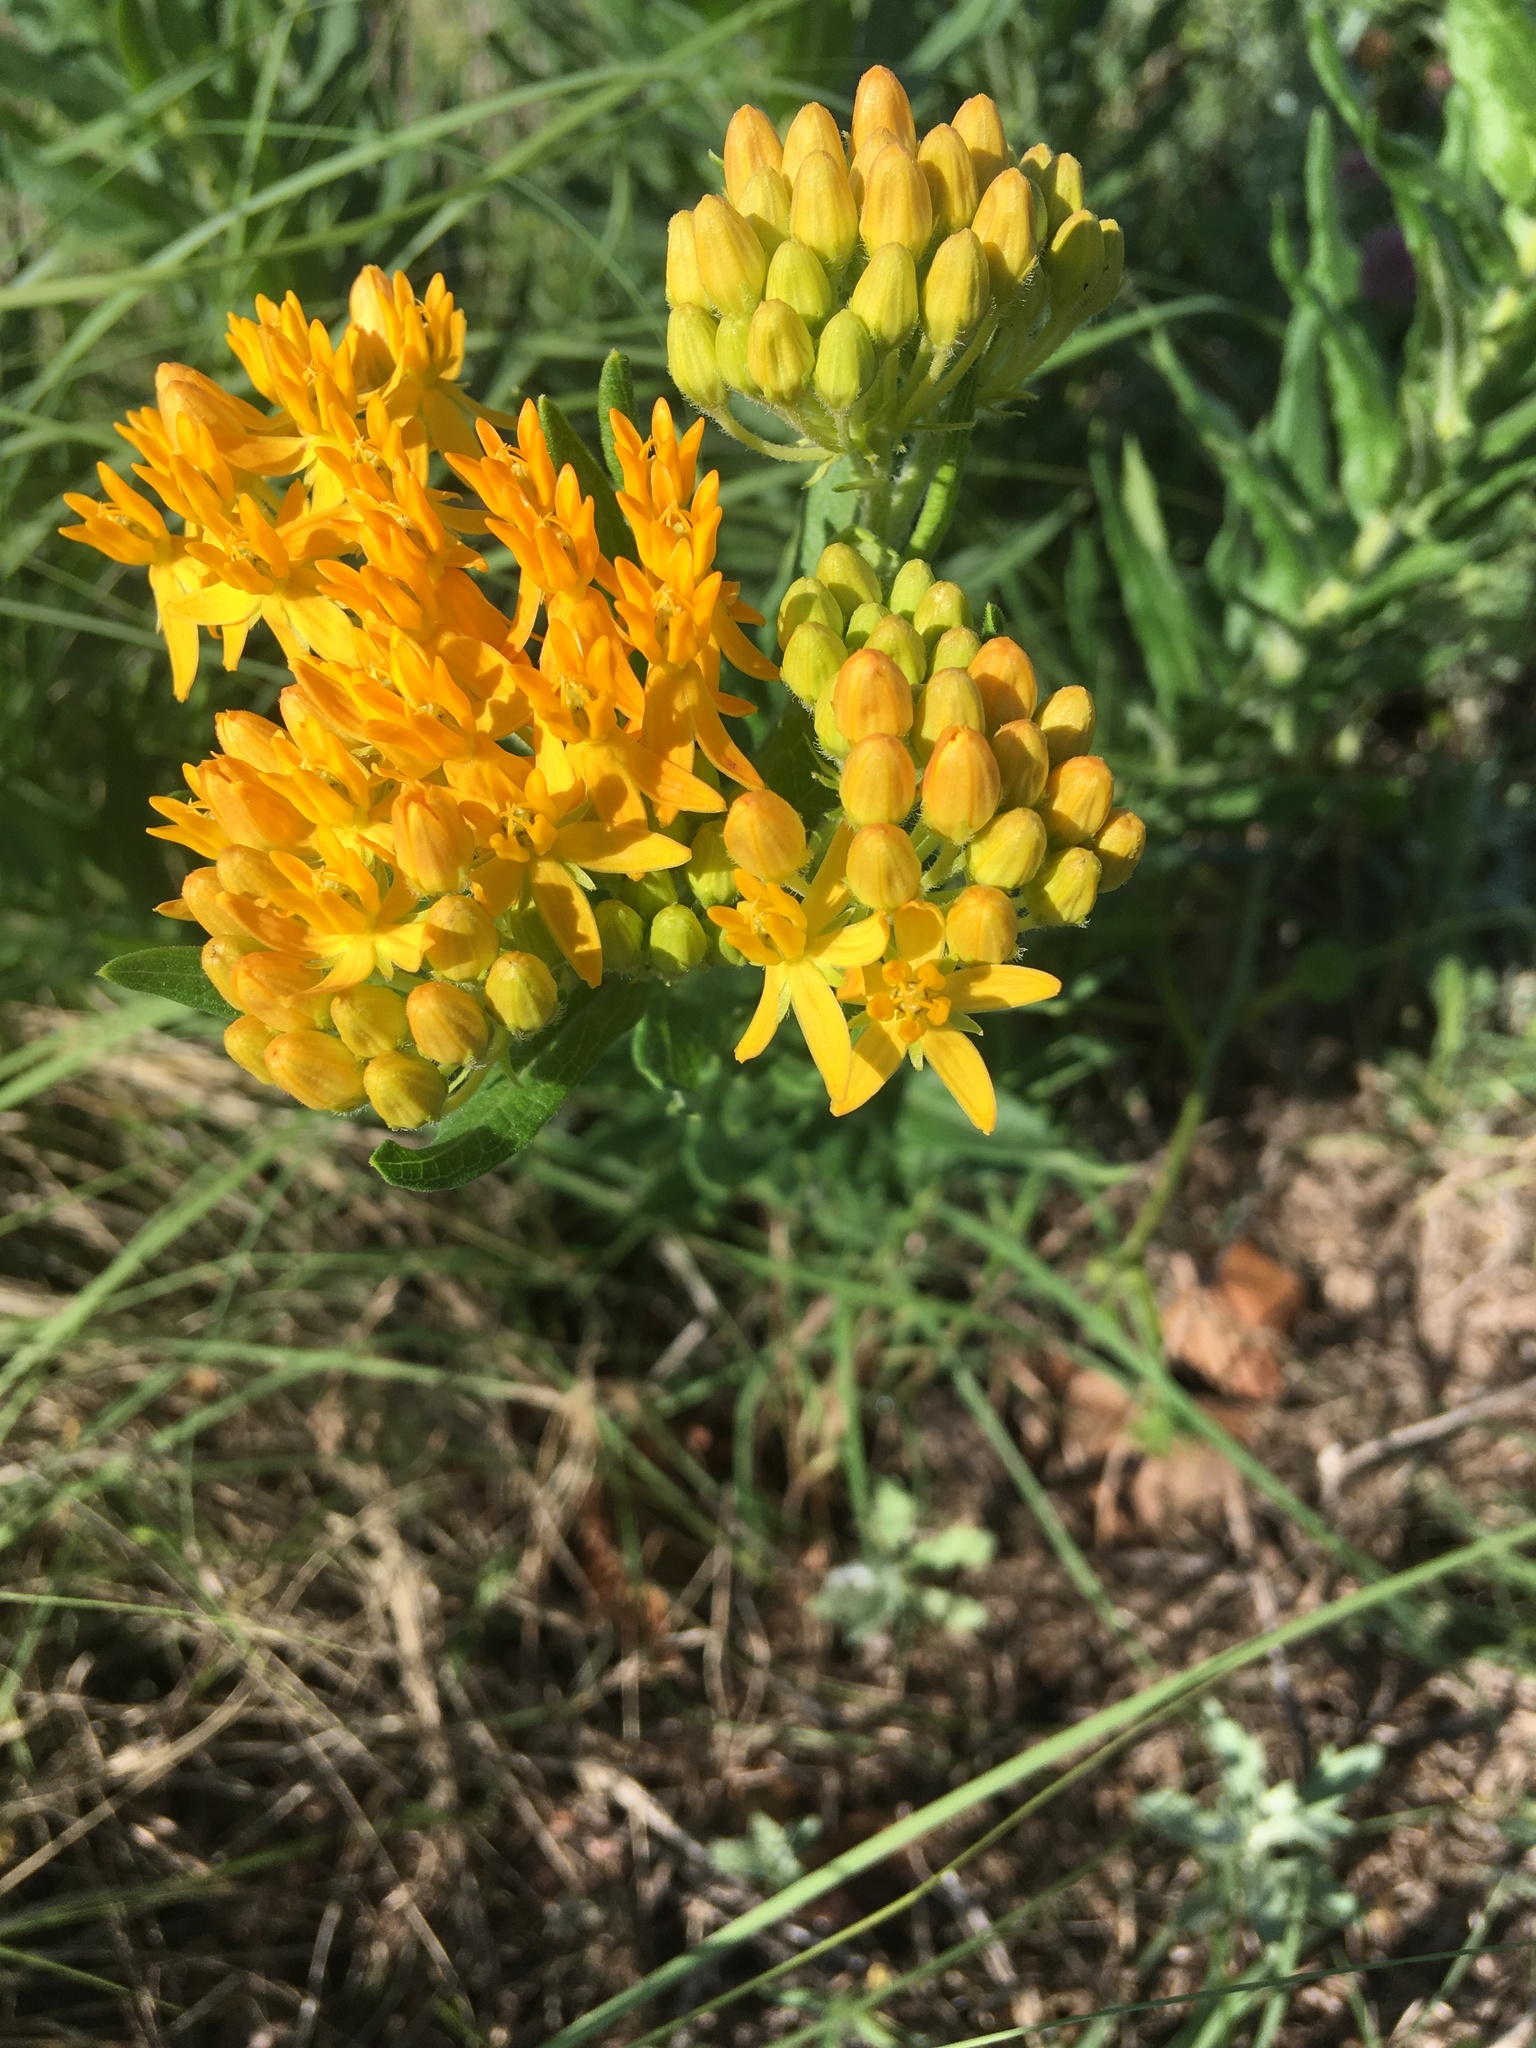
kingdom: Plantae
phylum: Tracheophyta
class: Magnoliopsida
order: Gentianales
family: Apocynaceae
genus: Asclepias
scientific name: Asclepias tuberosa
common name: Butterfly milkweed
